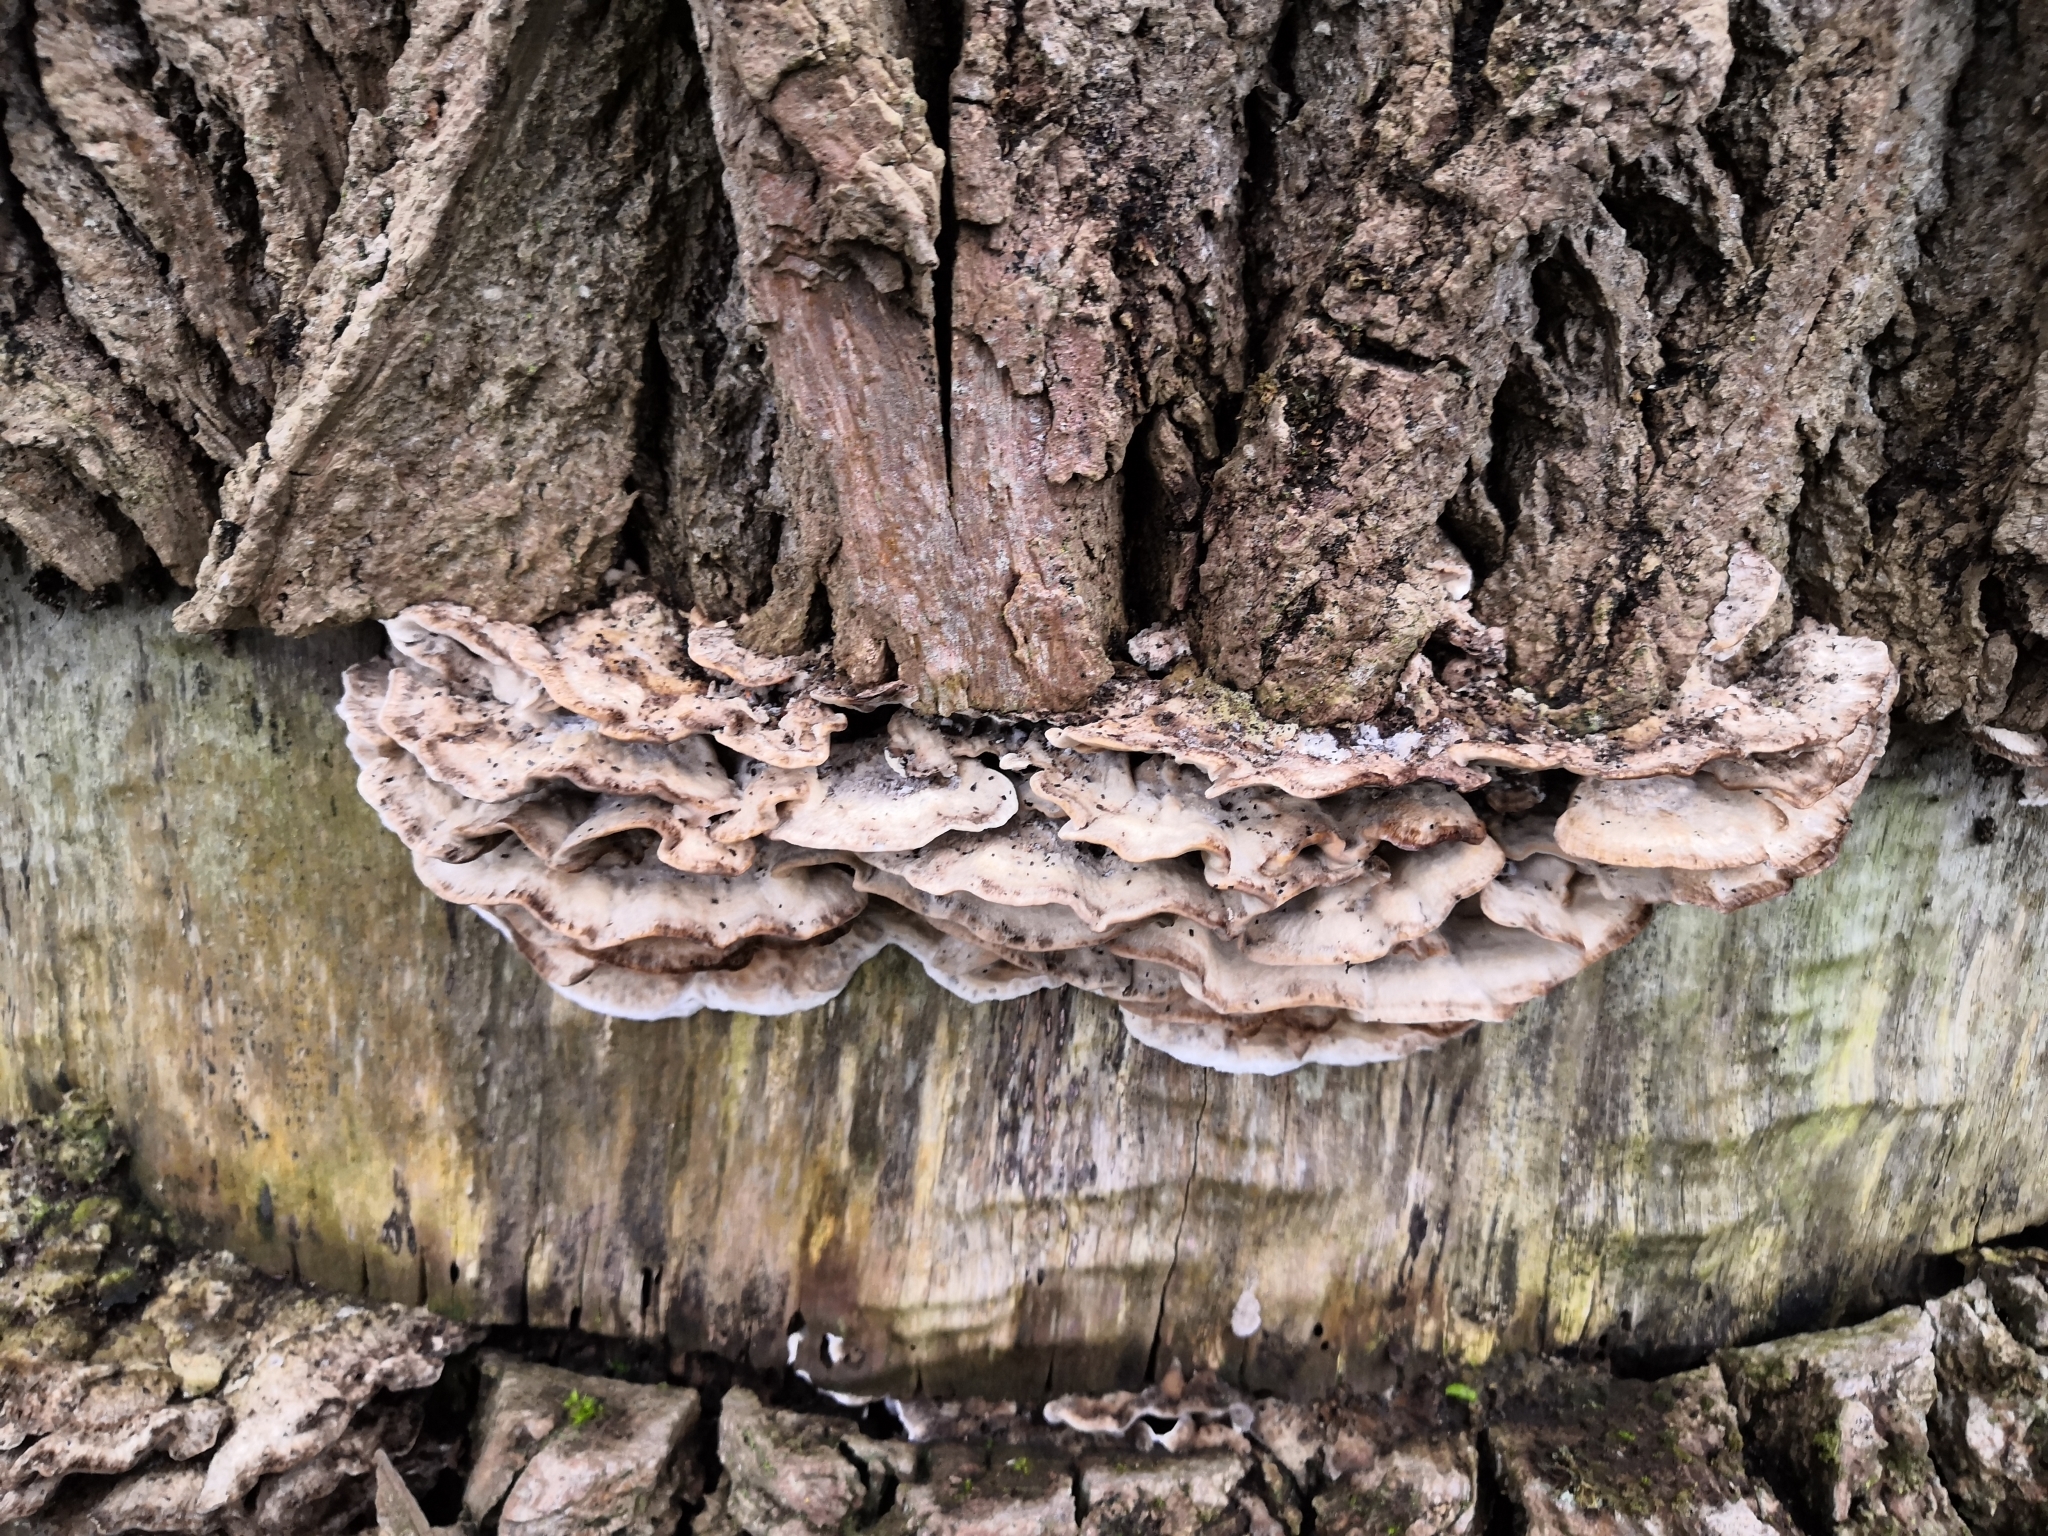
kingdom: Fungi
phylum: Basidiomycota
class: Agaricomycetes
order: Polyporales
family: Phanerochaetaceae
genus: Bjerkandera
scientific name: Bjerkandera adusta
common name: Smoky bracket
